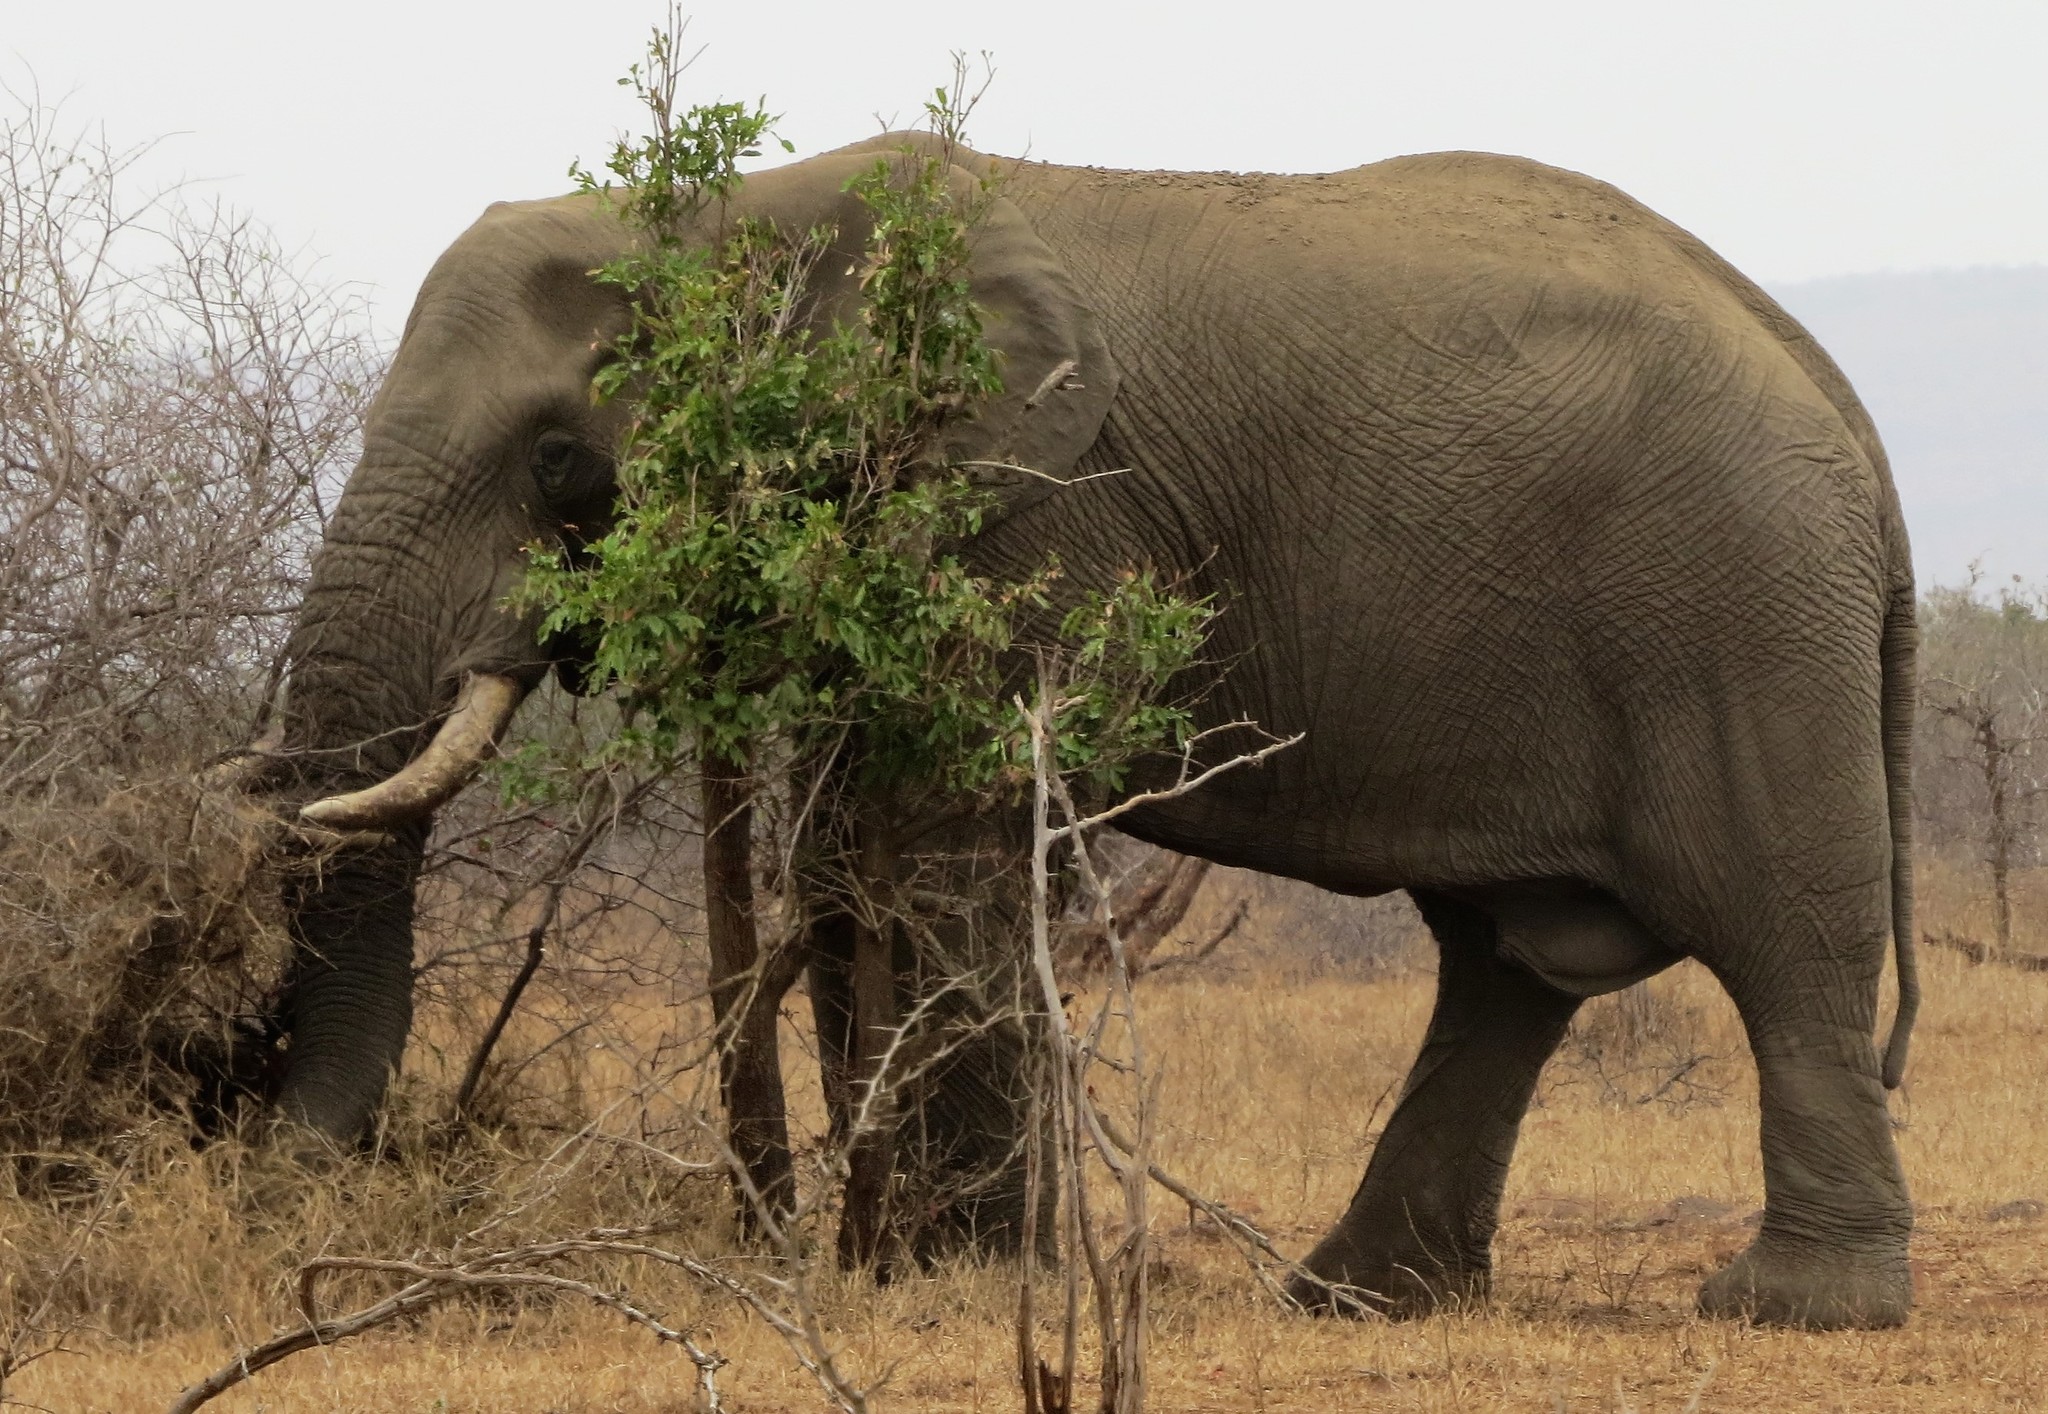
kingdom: Animalia
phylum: Chordata
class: Mammalia
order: Proboscidea
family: Elephantidae
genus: Loxodonta
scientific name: Loxodonta africana
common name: African elephant
